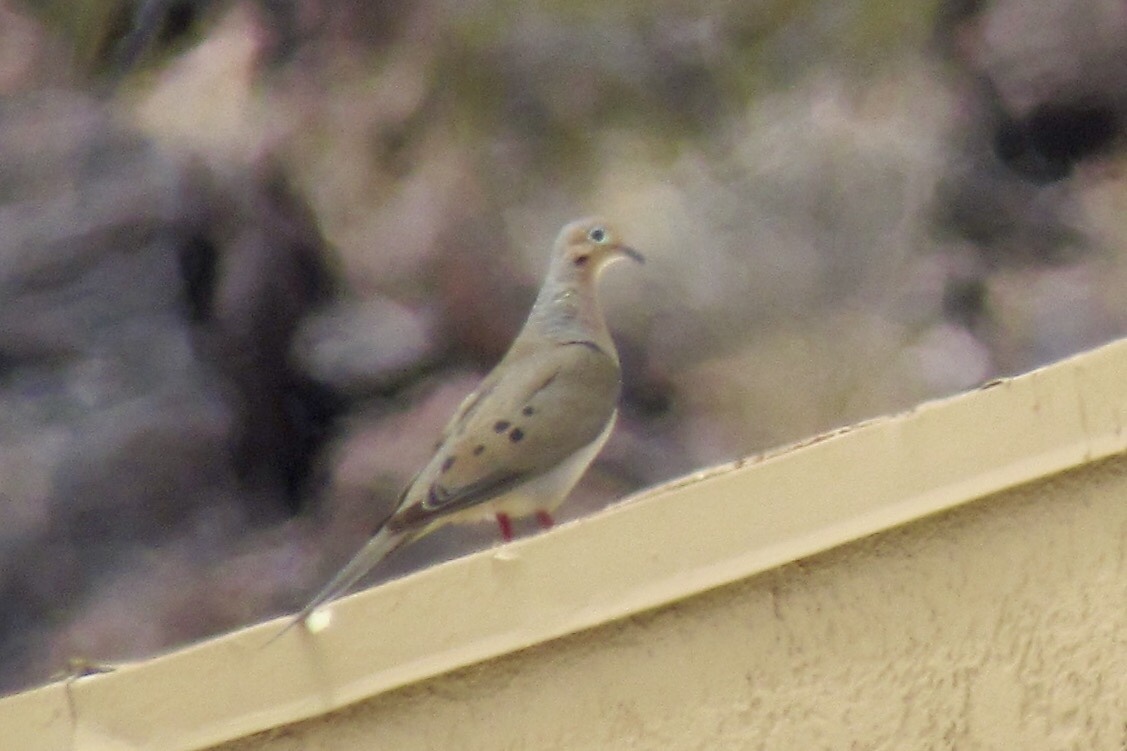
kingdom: Animalia
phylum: Chordata
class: Aves
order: Columbiformes
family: Columbidae
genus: Zenaida
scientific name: Zenaida macroura
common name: Mourning dove
